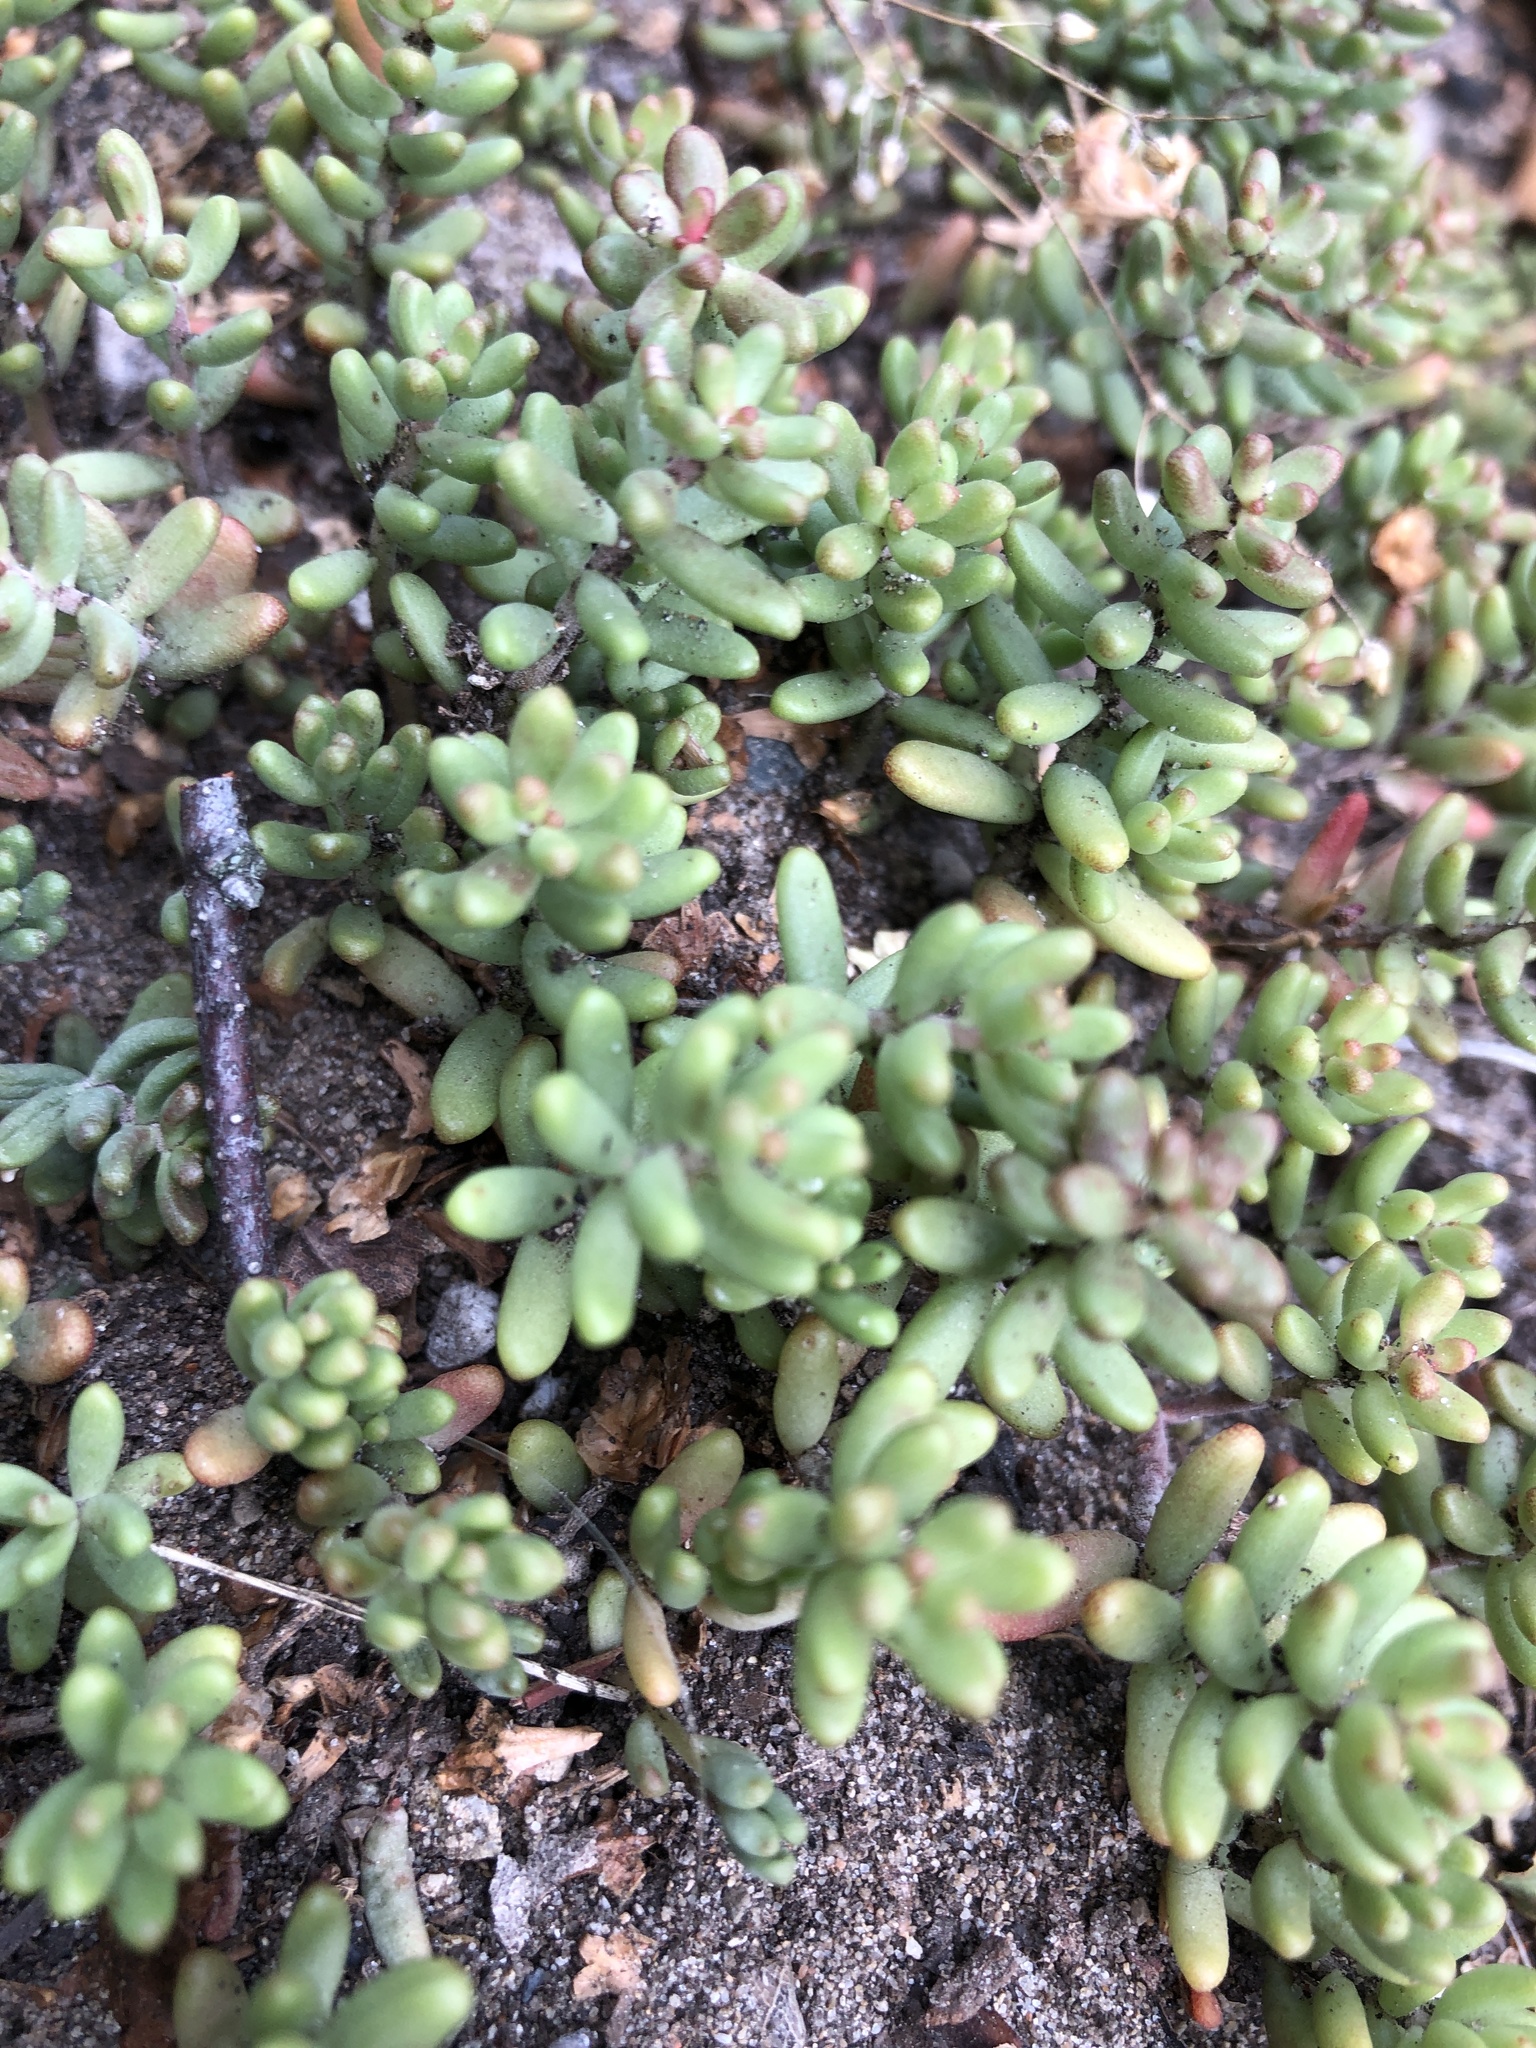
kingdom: Plantae
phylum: Tracheophyta
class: Magnoliopsida
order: Saxifragales
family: Crassulaceae
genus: Sedum
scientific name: Sedum album
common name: White stonecrop
